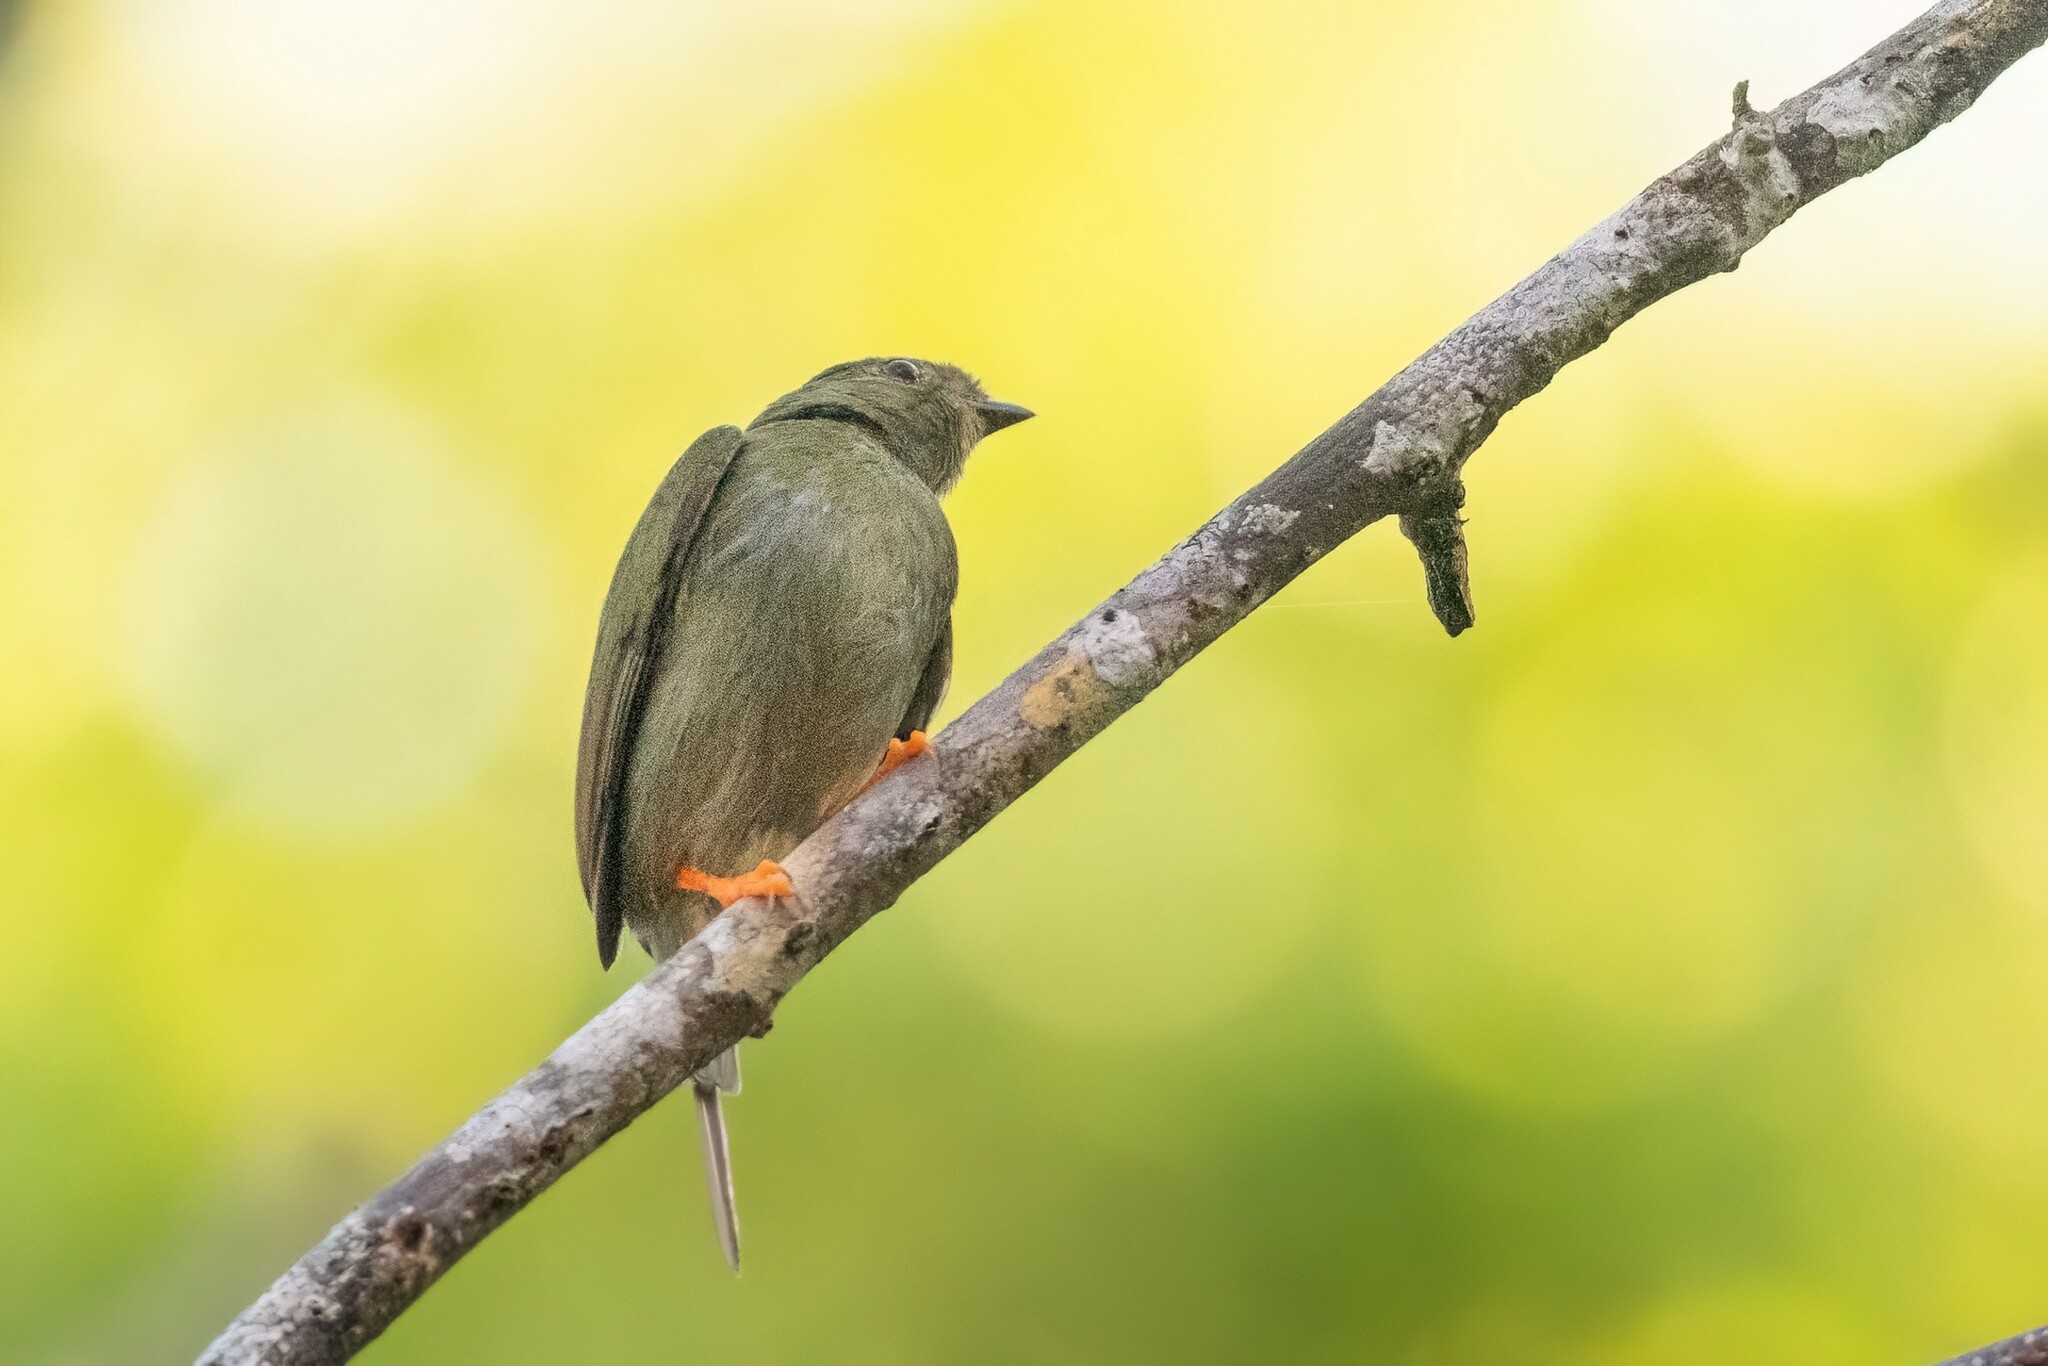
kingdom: Animalia
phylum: Chordata
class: Aves
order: Passeriformes
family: Pipridae
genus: Chiroxiphia
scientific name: Chiroxiphia linearis
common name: Long-tailed manakin
